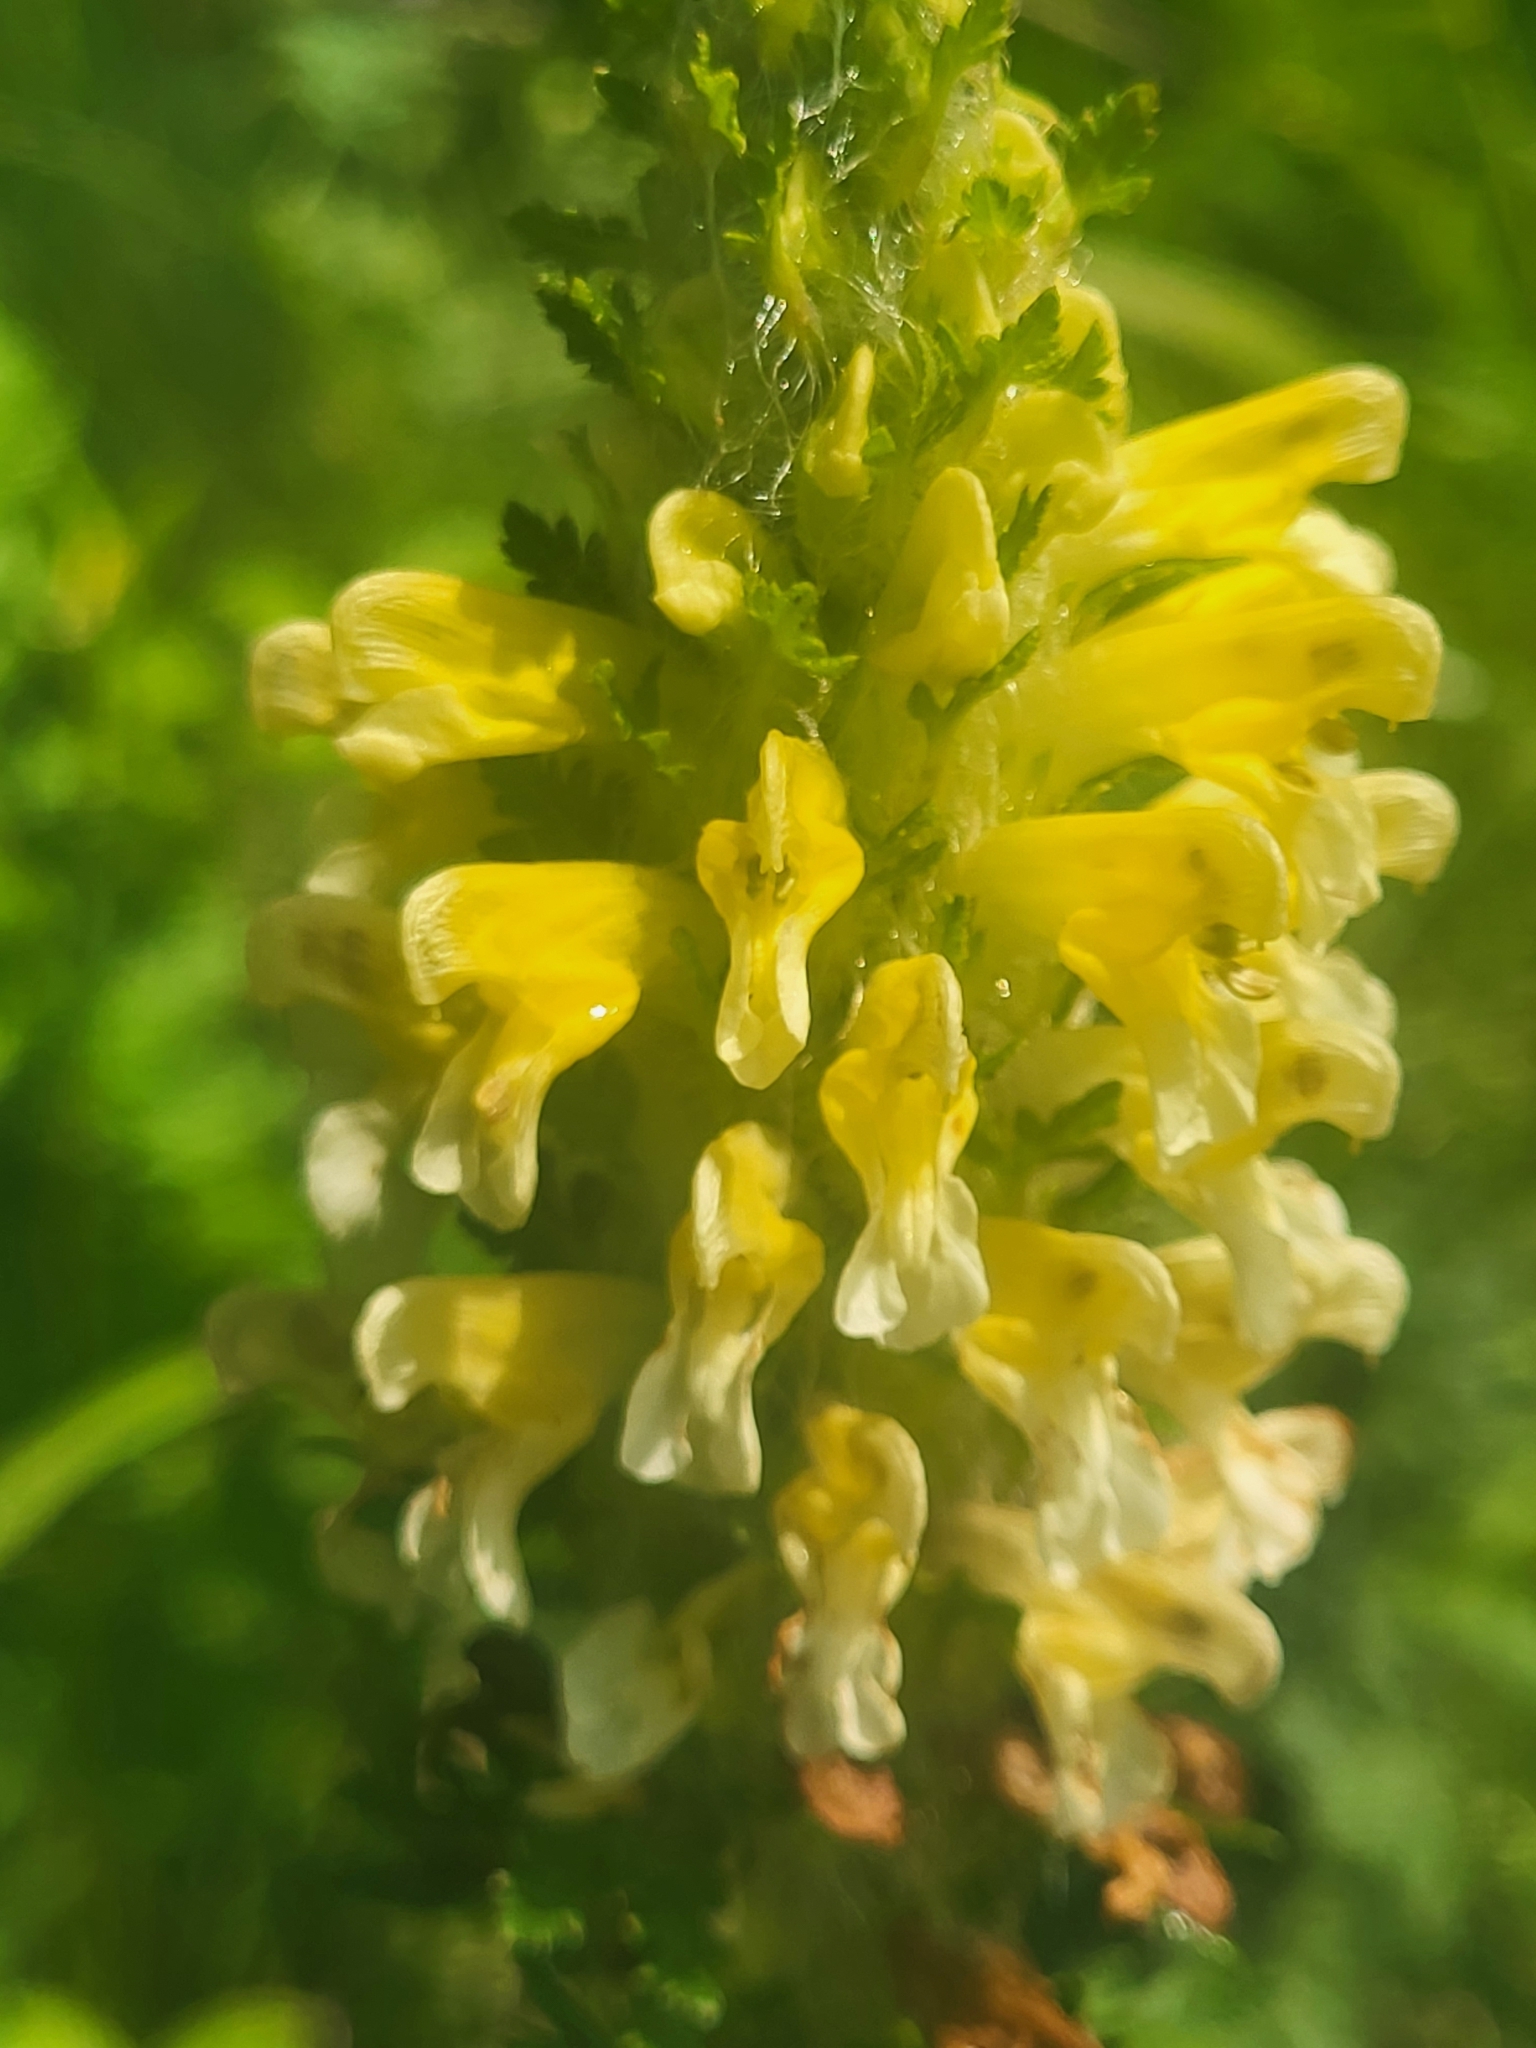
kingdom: Plantae
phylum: Tracheophyta
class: Magnoliopsida
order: Lamiales
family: Orobanchaceae
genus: Pedicularis
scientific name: Pedicularis condensata
